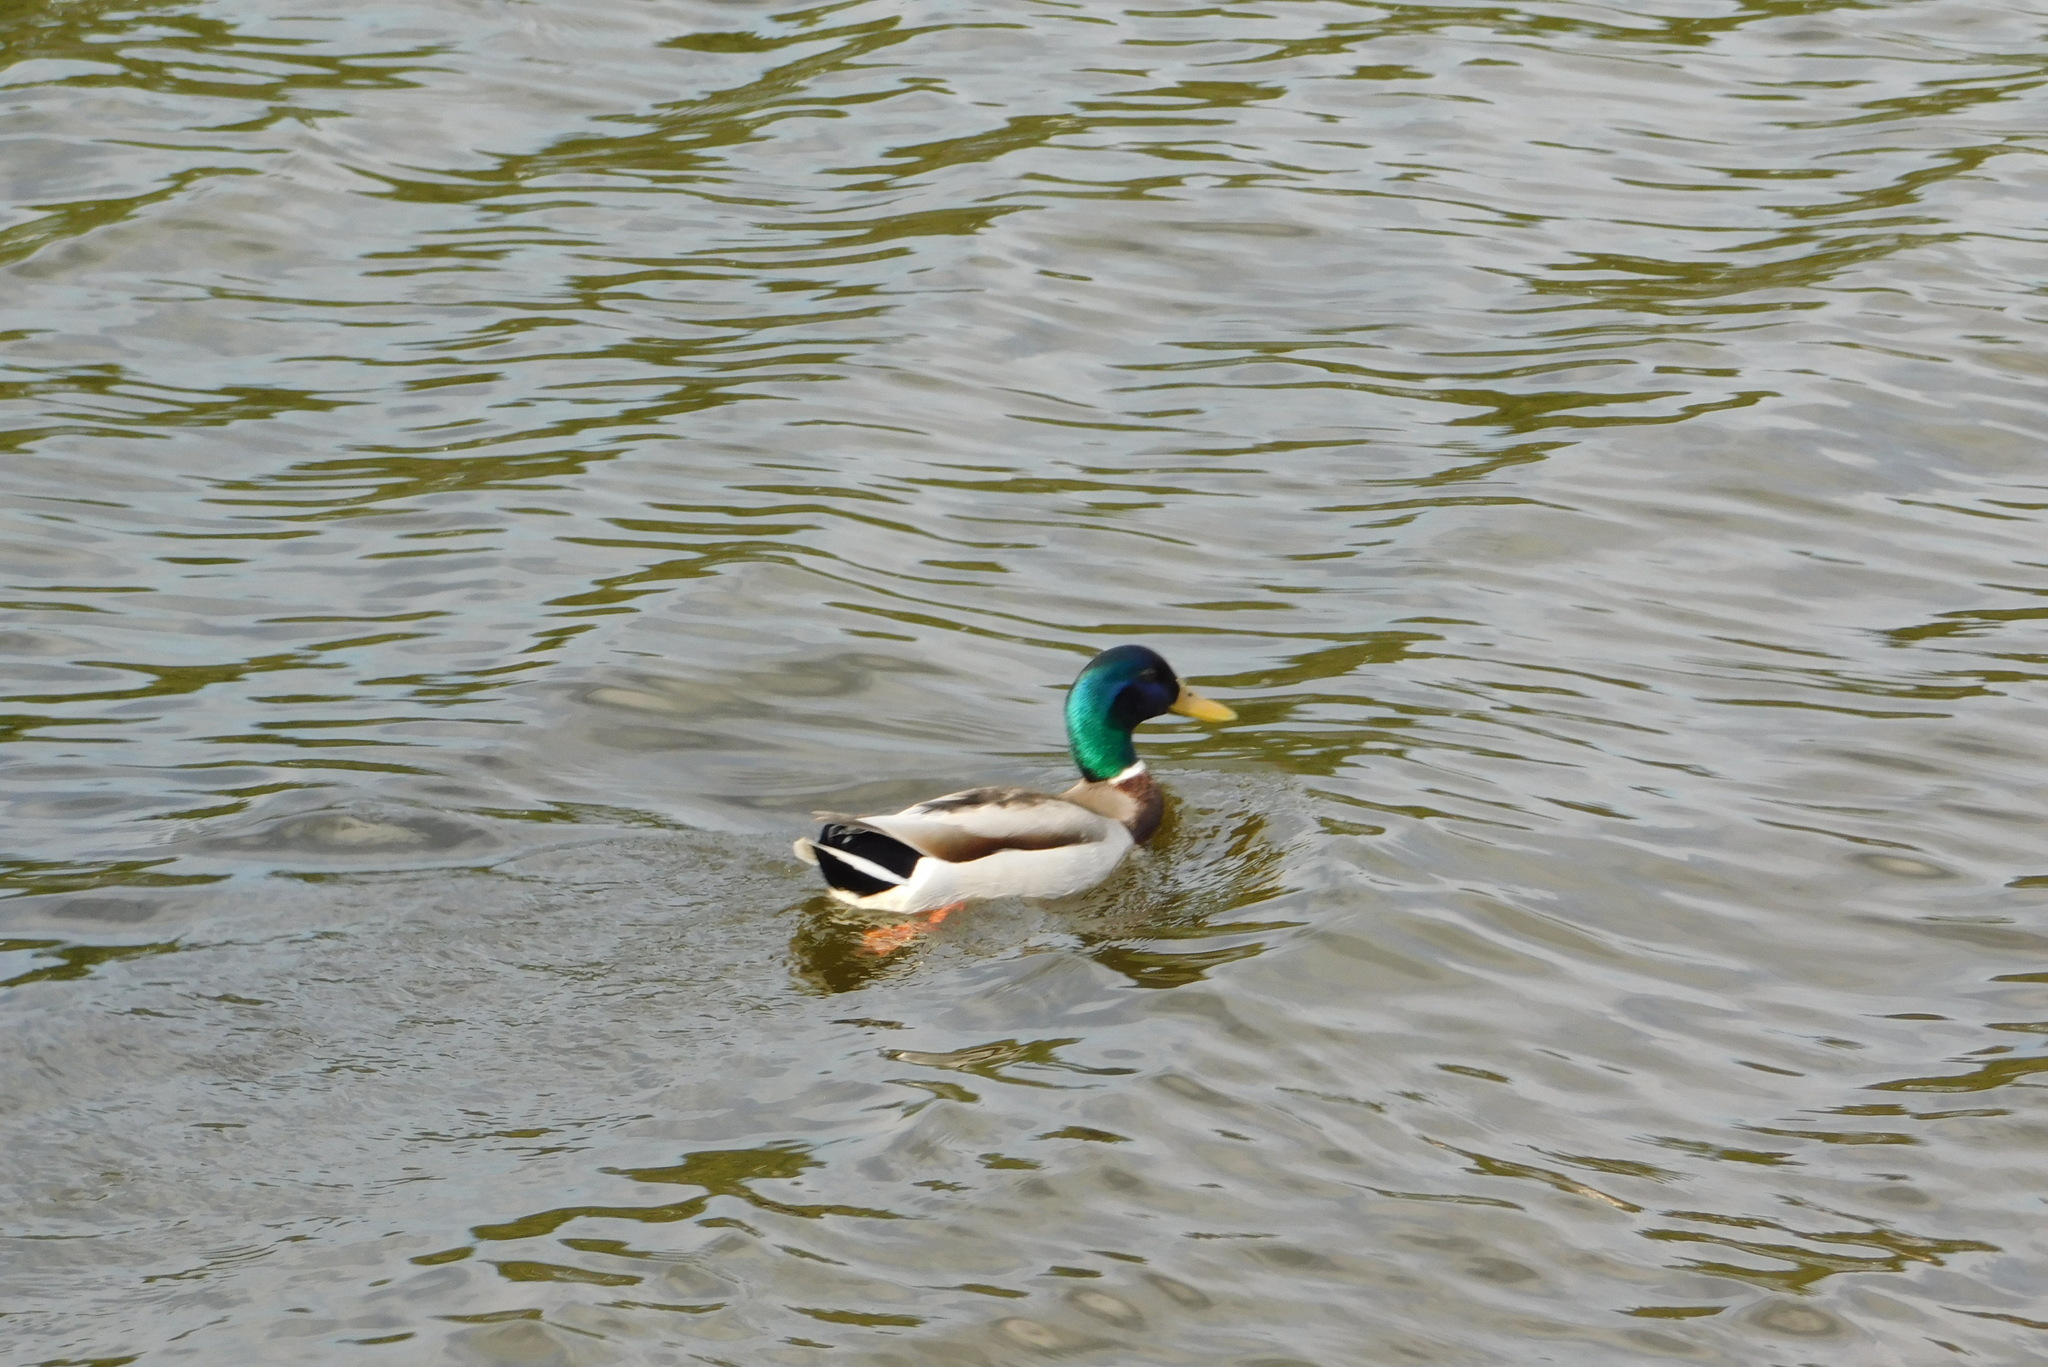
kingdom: Animalia
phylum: Chordata
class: Aves
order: Anseriformes
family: Anatidae
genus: Anas
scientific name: Anas platyrhynchos
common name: Mallard
